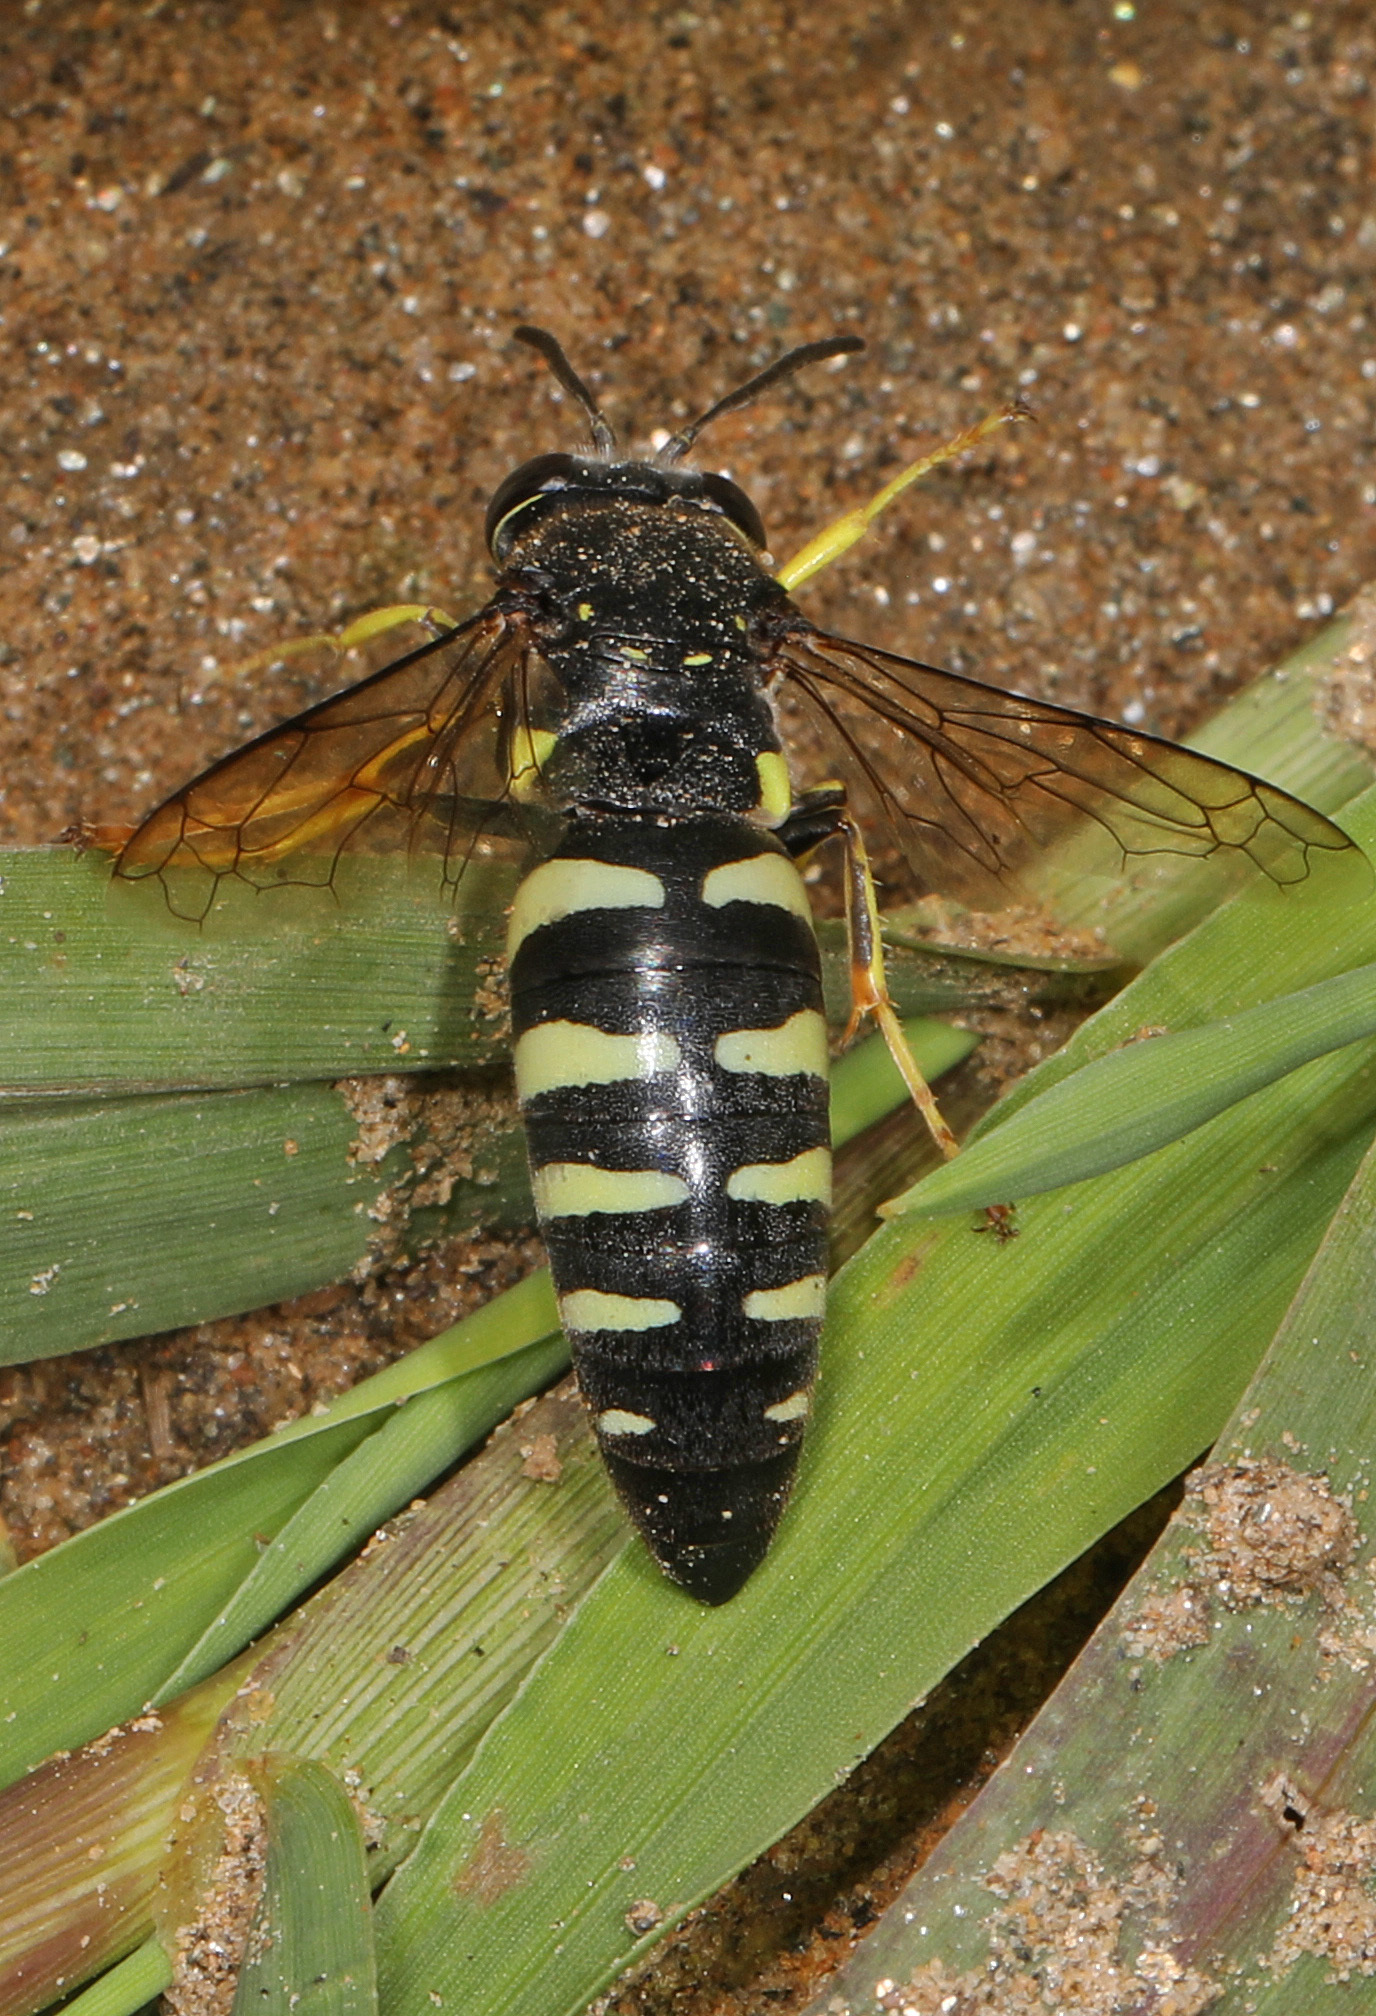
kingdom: Animalia
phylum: Arthropoda
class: Insecta
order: Hymenoptera
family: Crabronidae
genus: Bicyrtes
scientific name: Bicyrtes quadrifasciatus
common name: Four-banded stink bug hunter wasp
